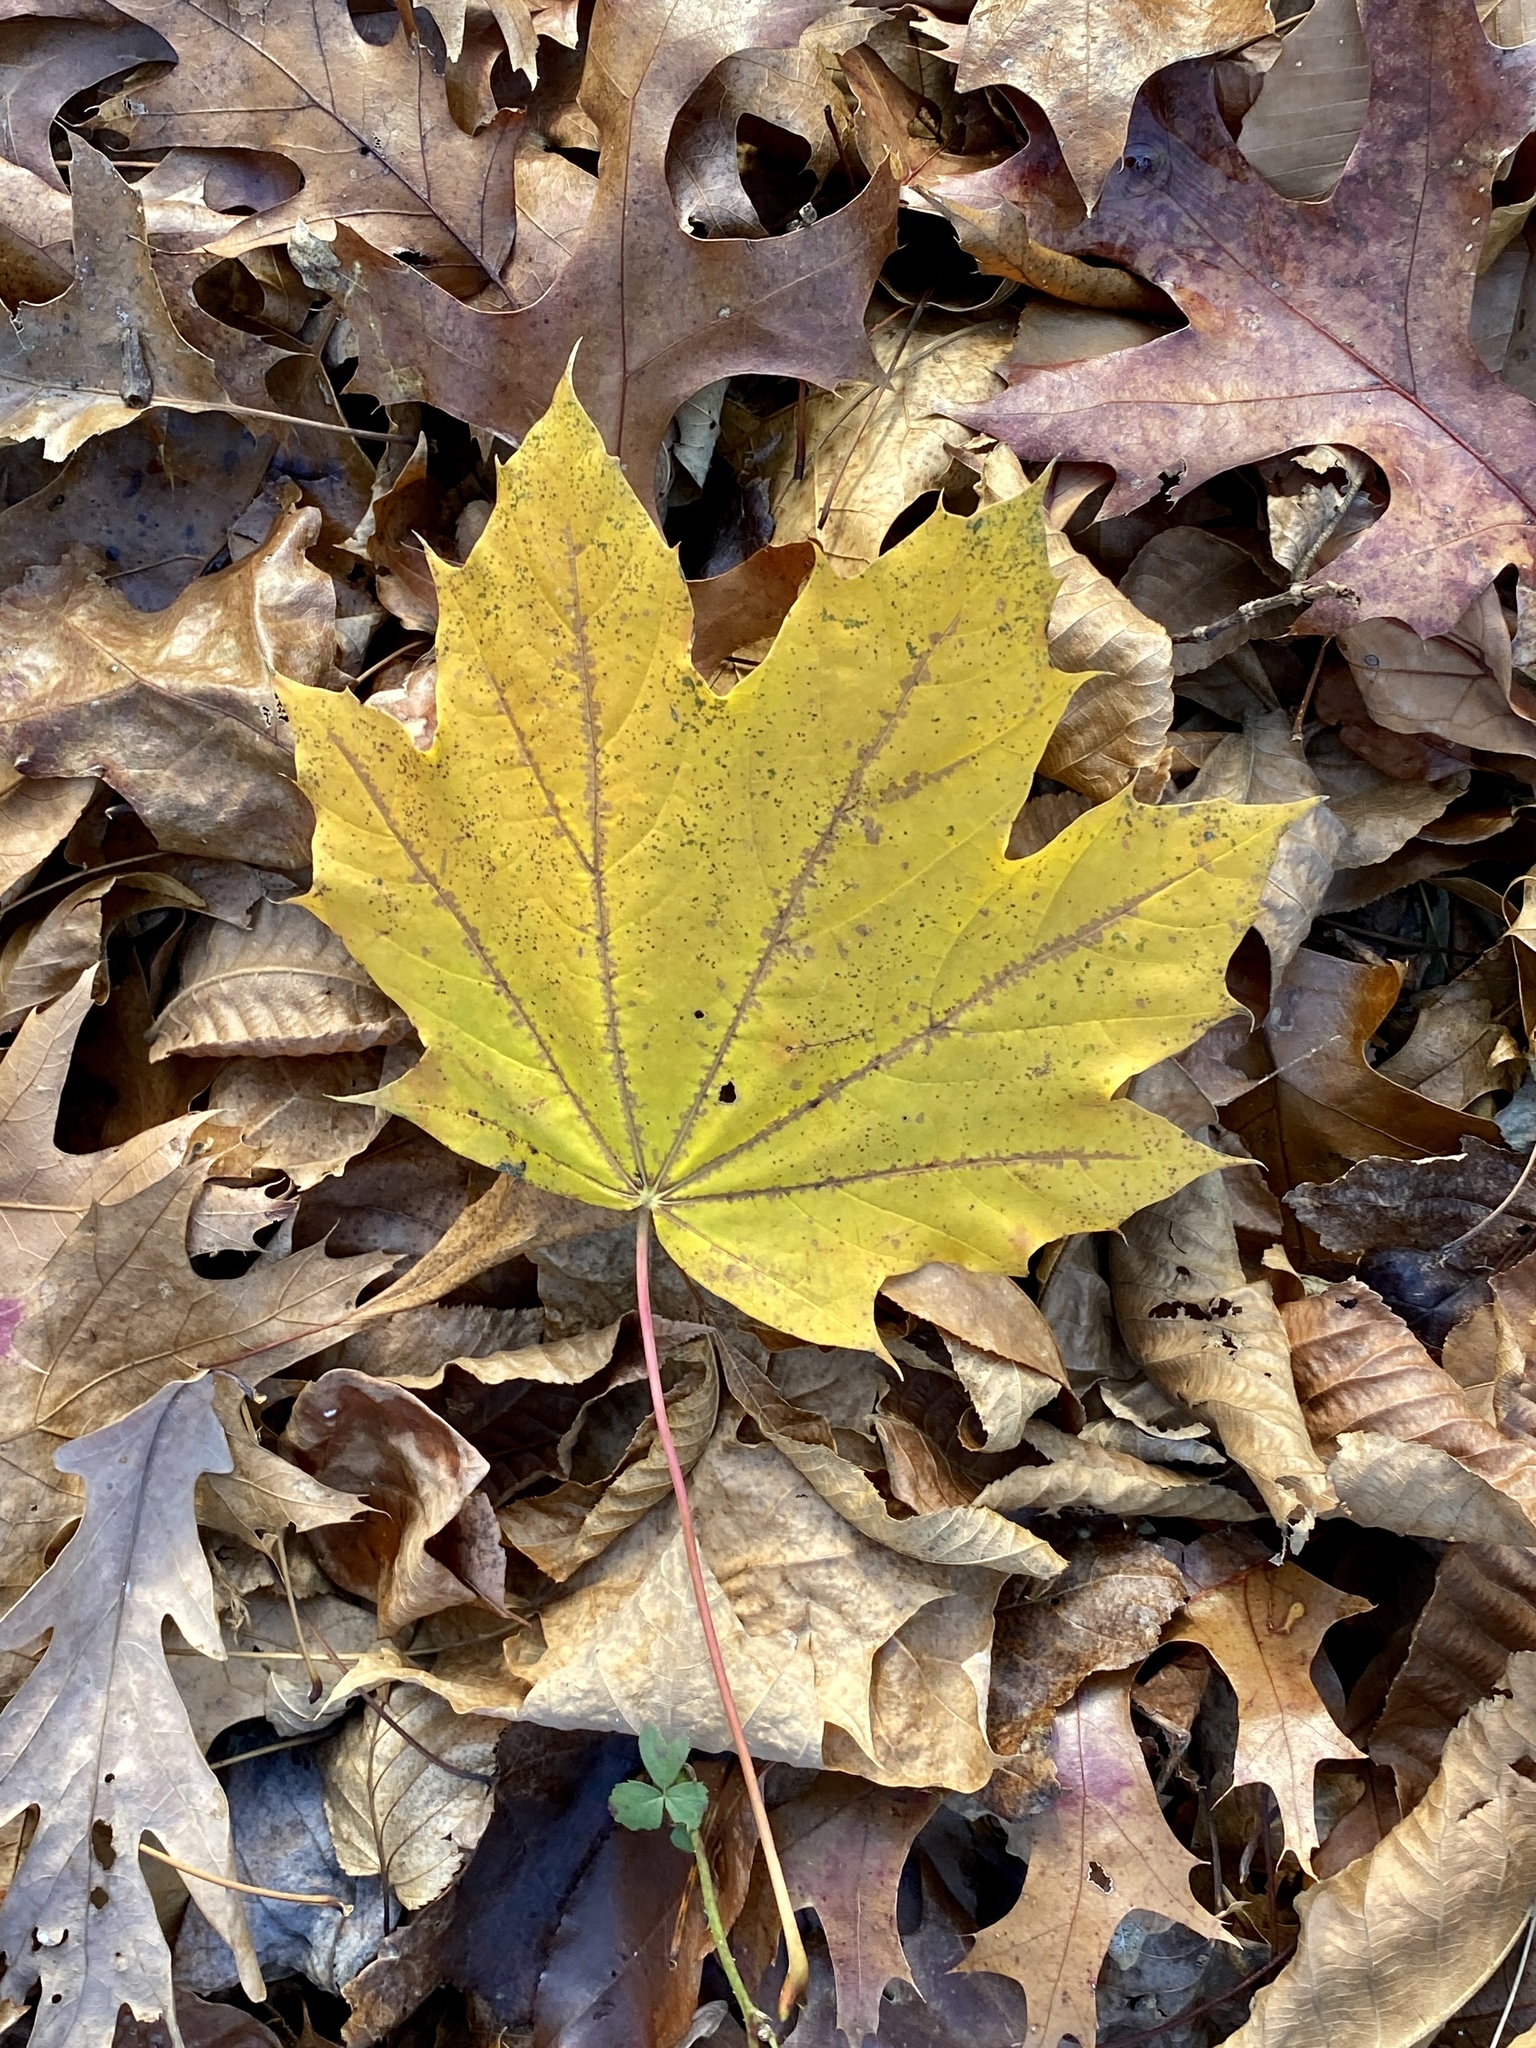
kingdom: Plantae
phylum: Tracheophyta
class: Magnoliopsida
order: Sapindales
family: Sapindaceae
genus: Acer
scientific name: Acer platanoides
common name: Norway maple
